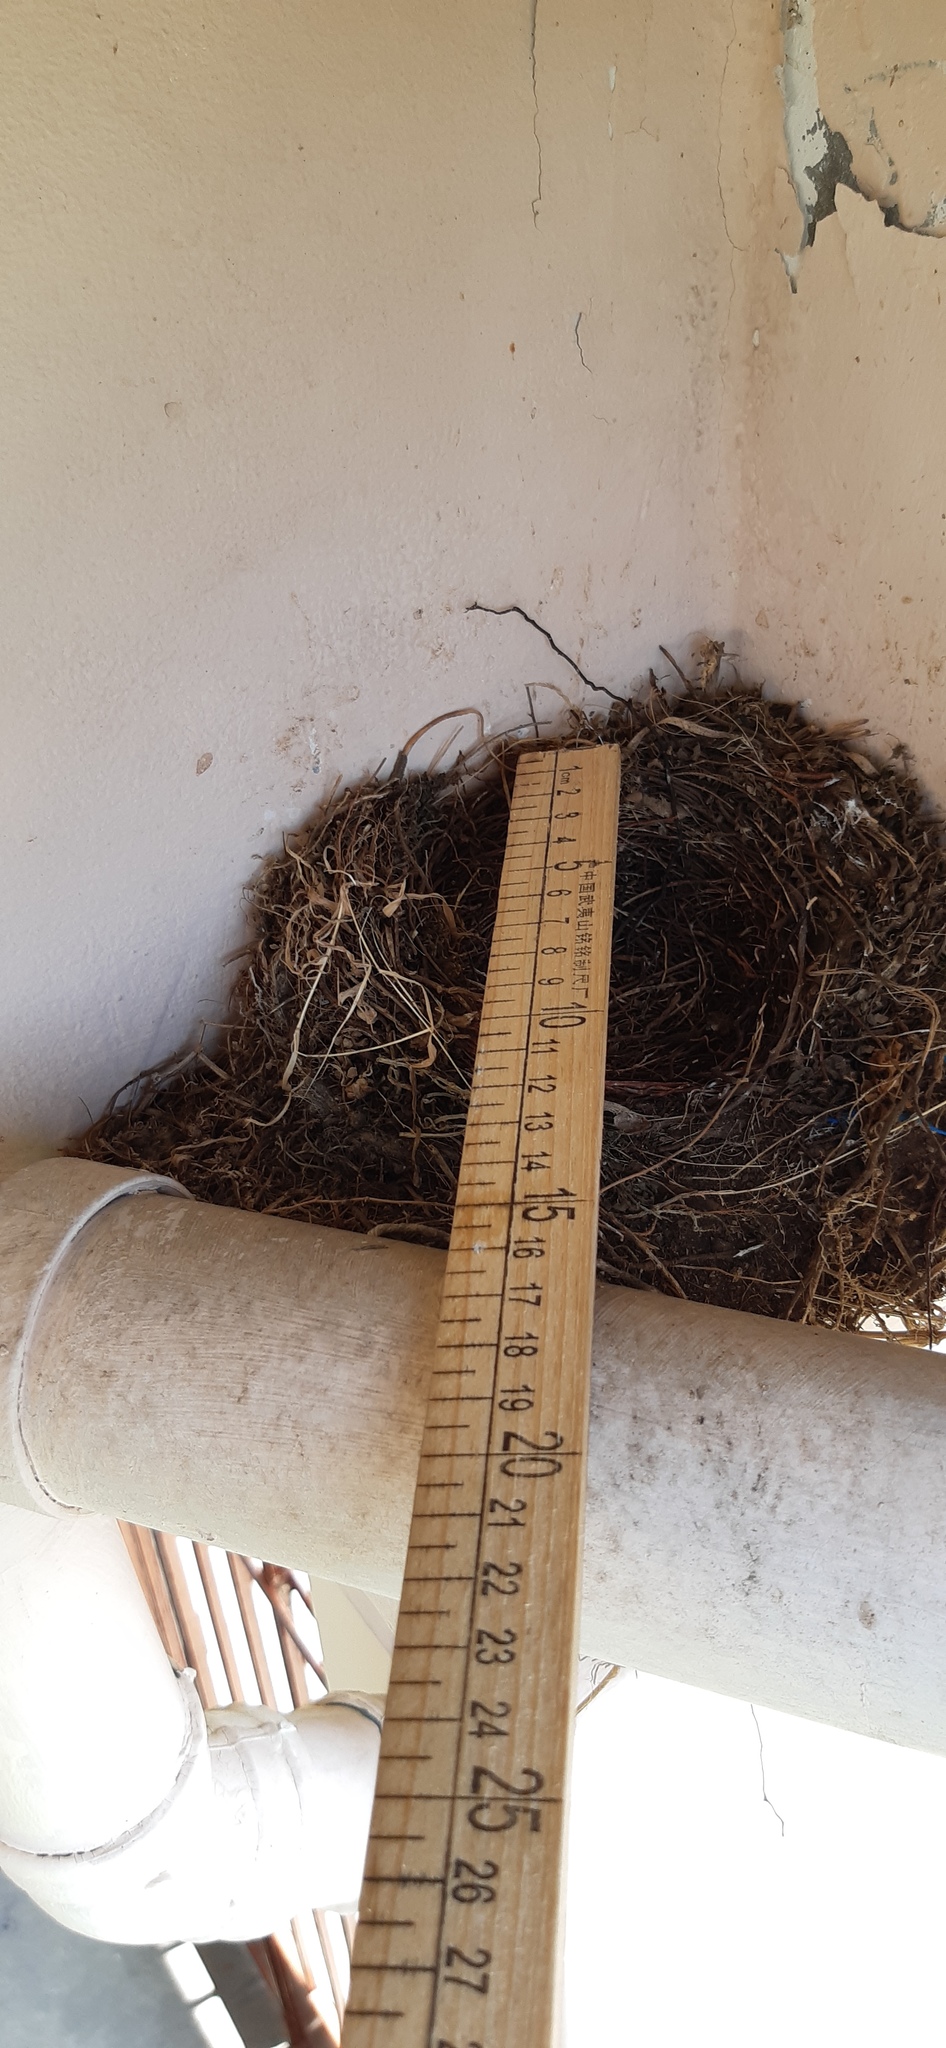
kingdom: Animalia
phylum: Chordata
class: Aves
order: Passeriformes
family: Turdidae
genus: Turdus
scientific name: Turdus grayi
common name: Clay-colored thrush
